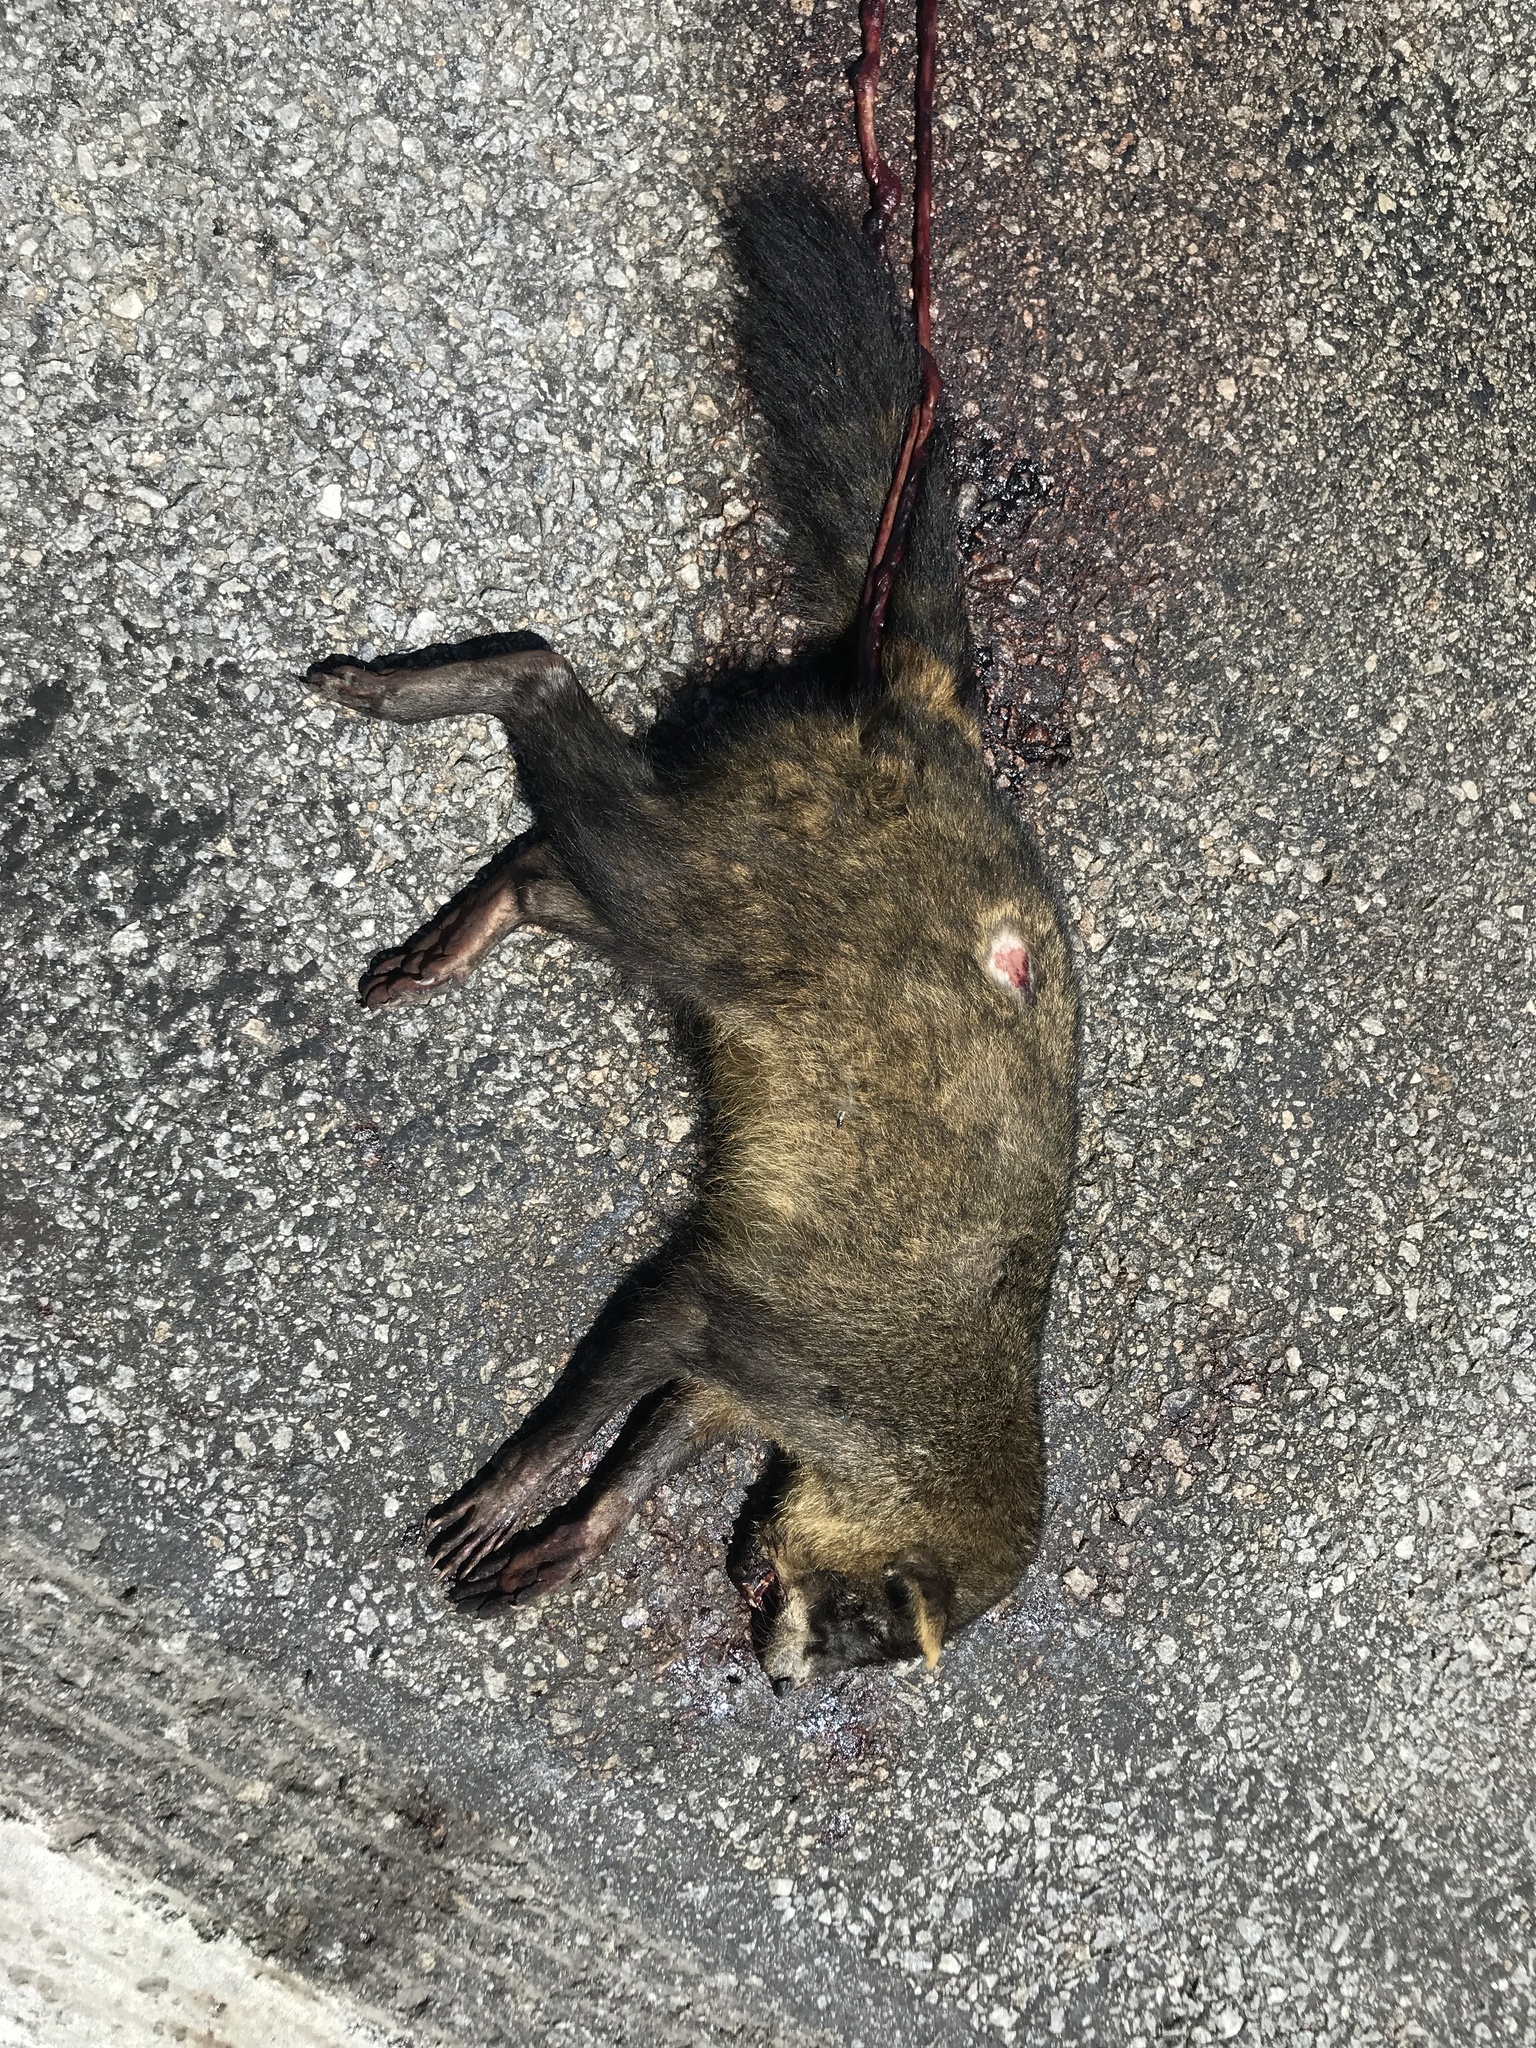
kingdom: Animalia
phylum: Chordata
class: Mammalia
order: Carnivora
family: Procyonidae
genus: Procyon
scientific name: Procyon cancrivorus
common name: Crab-eating raccoon
